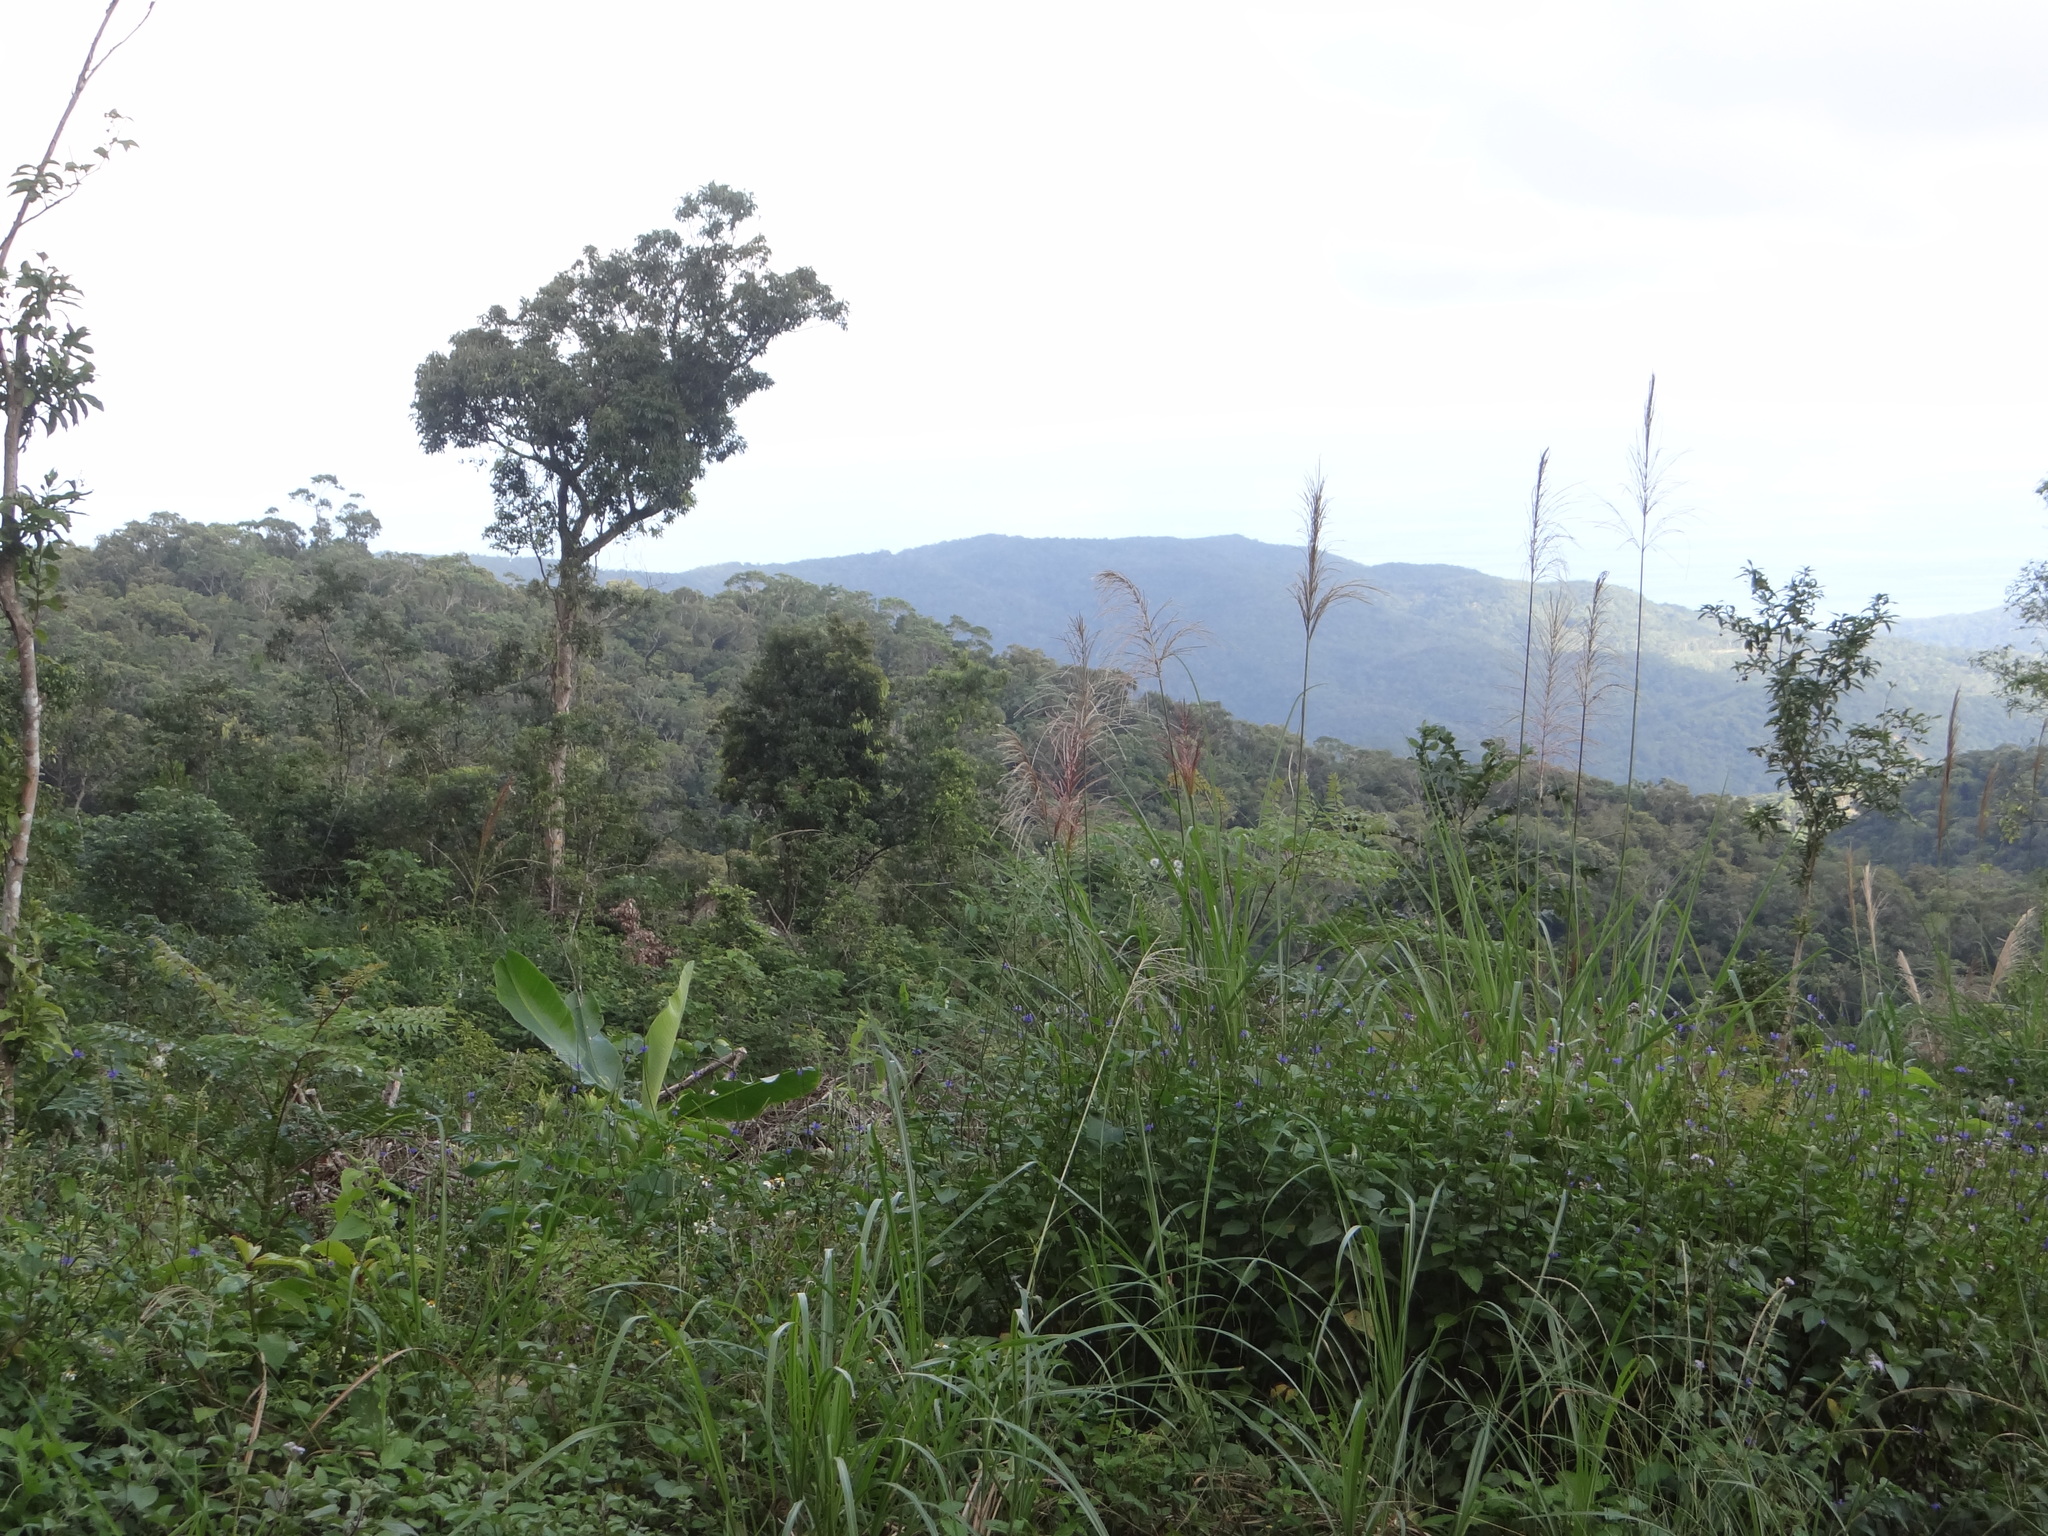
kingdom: Plantae
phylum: Tracheophyta
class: Magnoliopsida
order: Fagales
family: Fagaceae
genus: Lithocarpus
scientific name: Lithocarpus shinsuiensis
